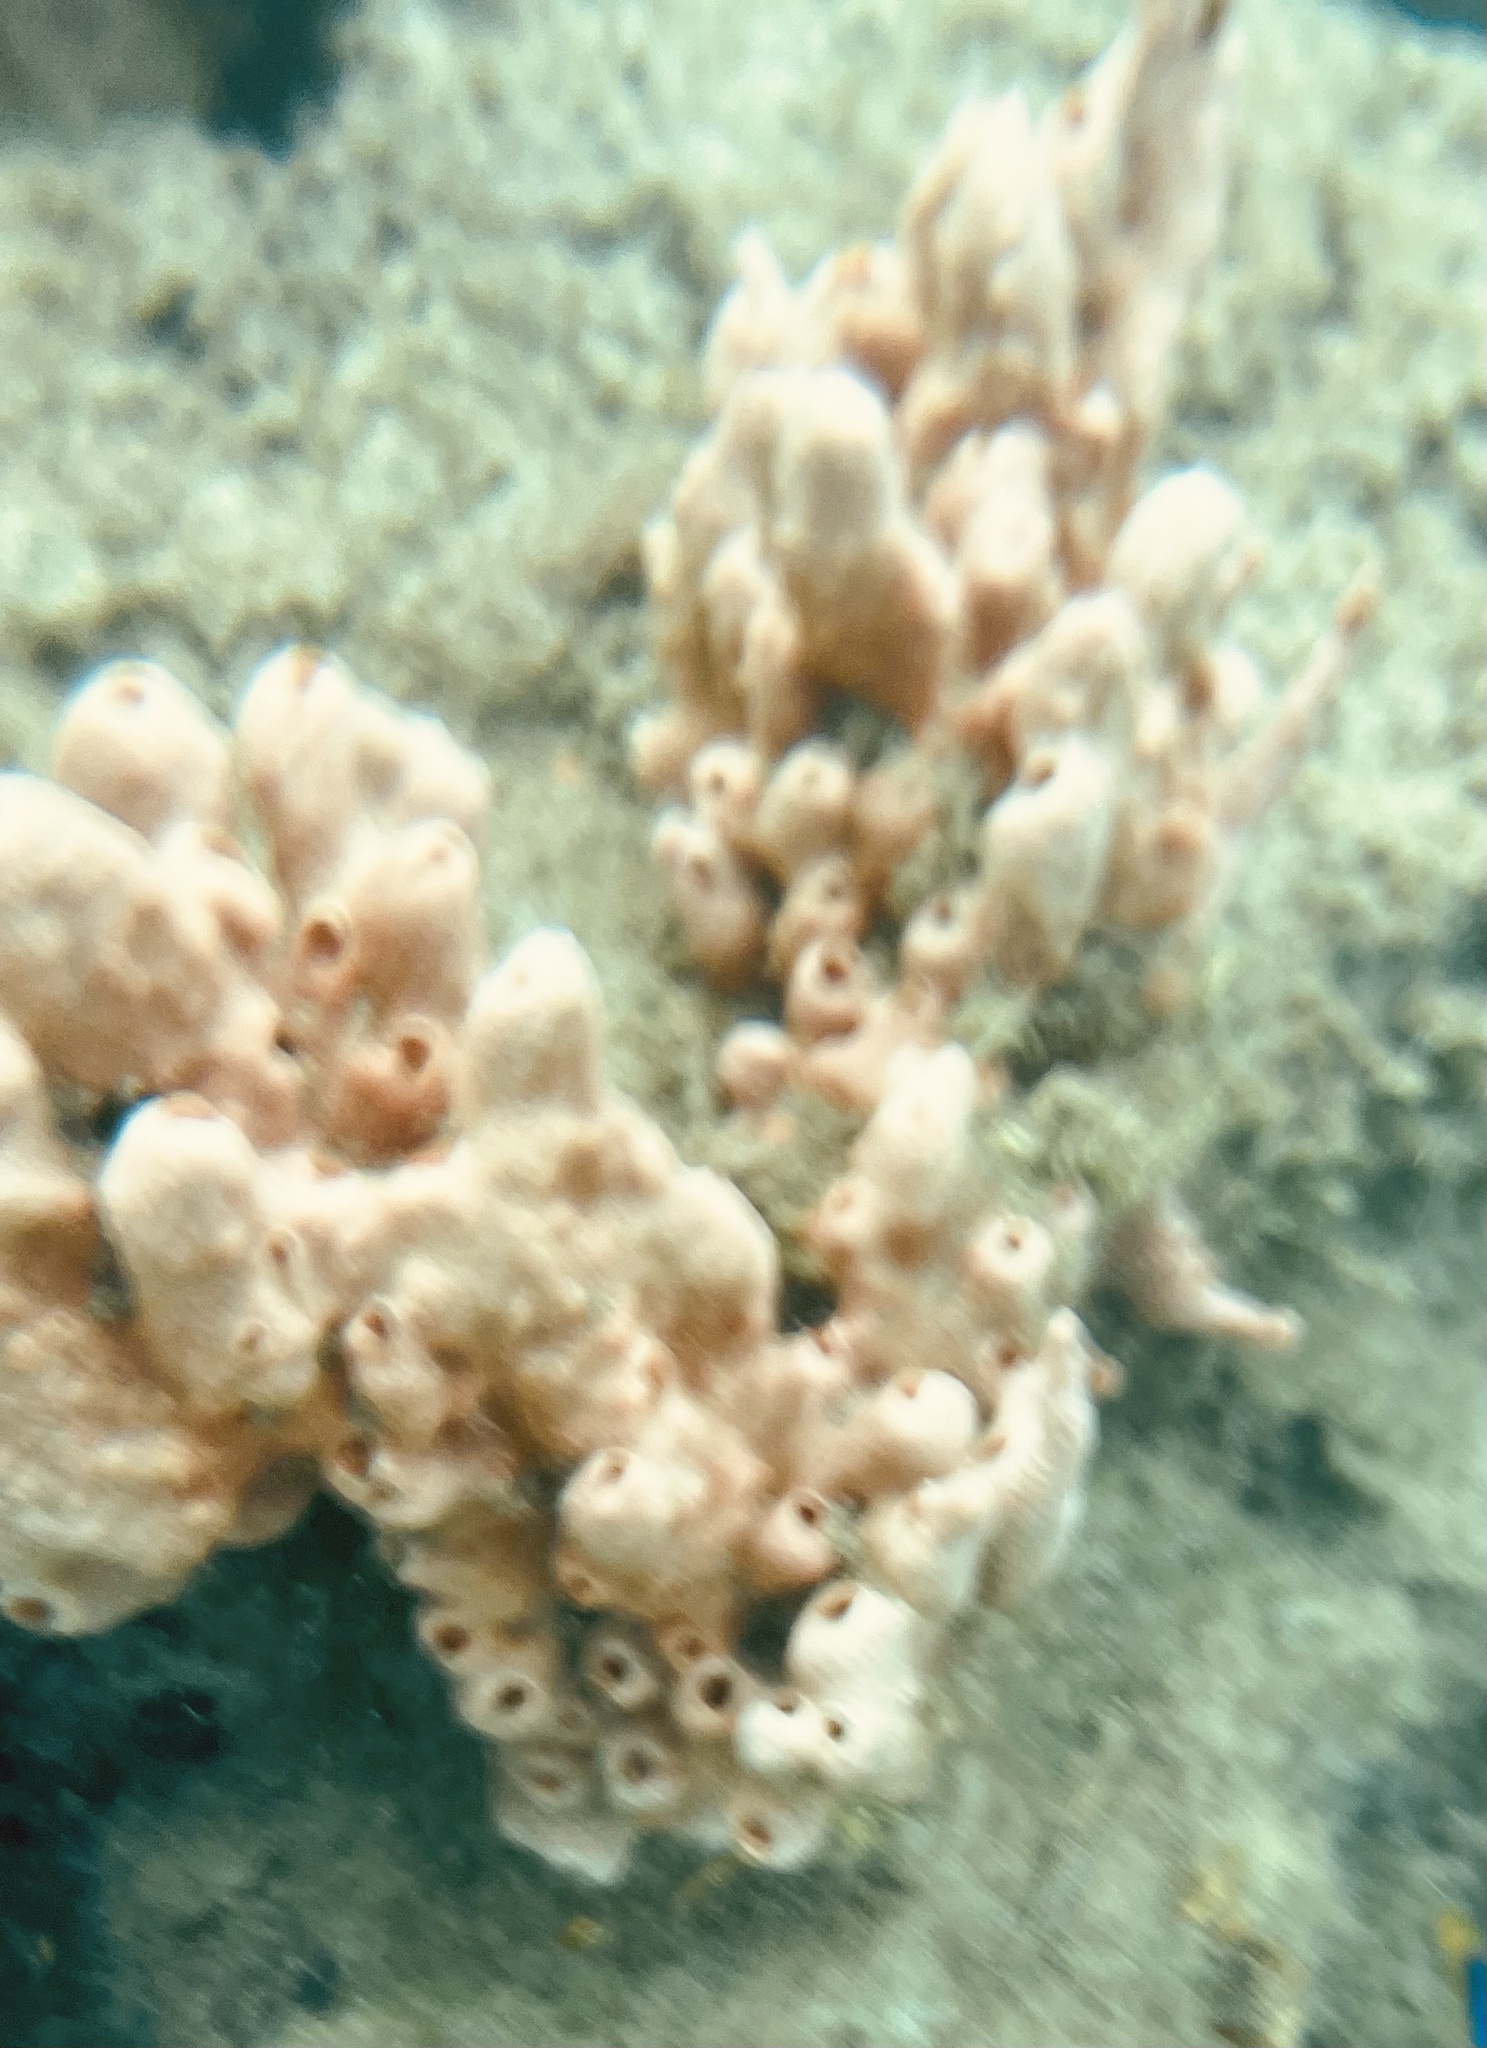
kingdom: Animalia
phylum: Porifera
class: Demospongiae
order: Poecilosclerida
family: Desmacididae
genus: Desmapsamma
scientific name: Desmapsamma anchorata
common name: Lumpy overgrowing sponge
